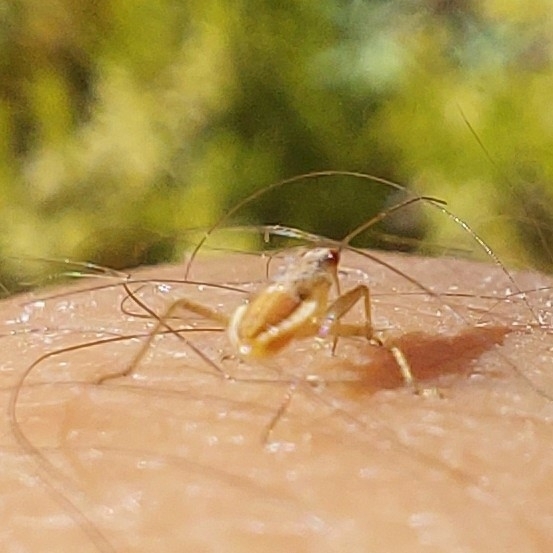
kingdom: Animalia
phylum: Arthropoda
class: Insecta
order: Hemiptera
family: Nabidae
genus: Nabis
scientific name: Nabis punctipennis
